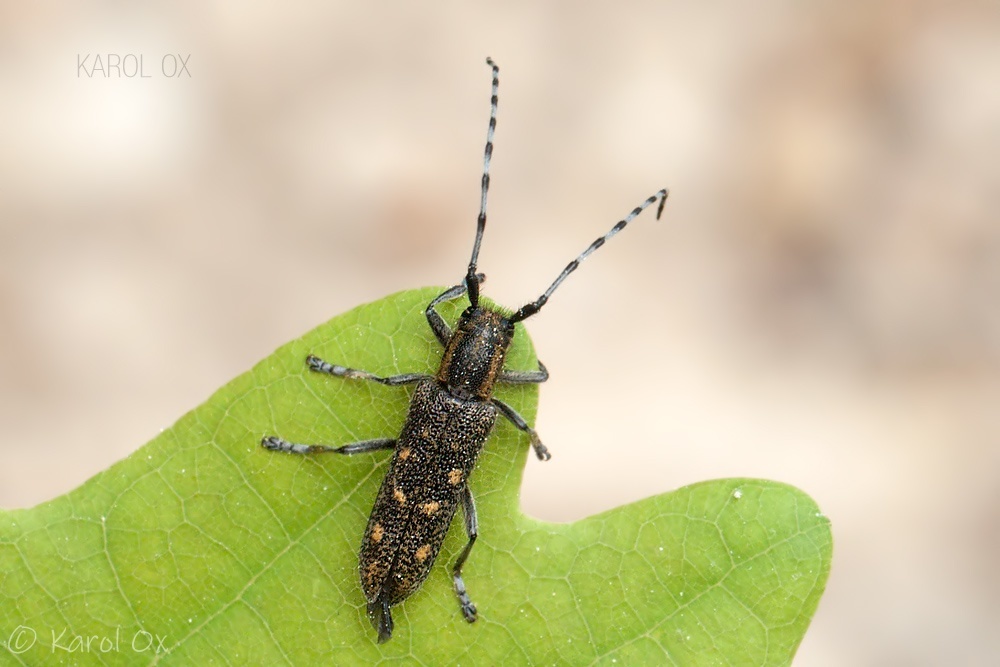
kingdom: Animalia
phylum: Arthropoda
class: Insecta
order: Coleoptera
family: Cerambycidae
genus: Saperda
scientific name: Saperda populnea
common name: Small poplar borer
